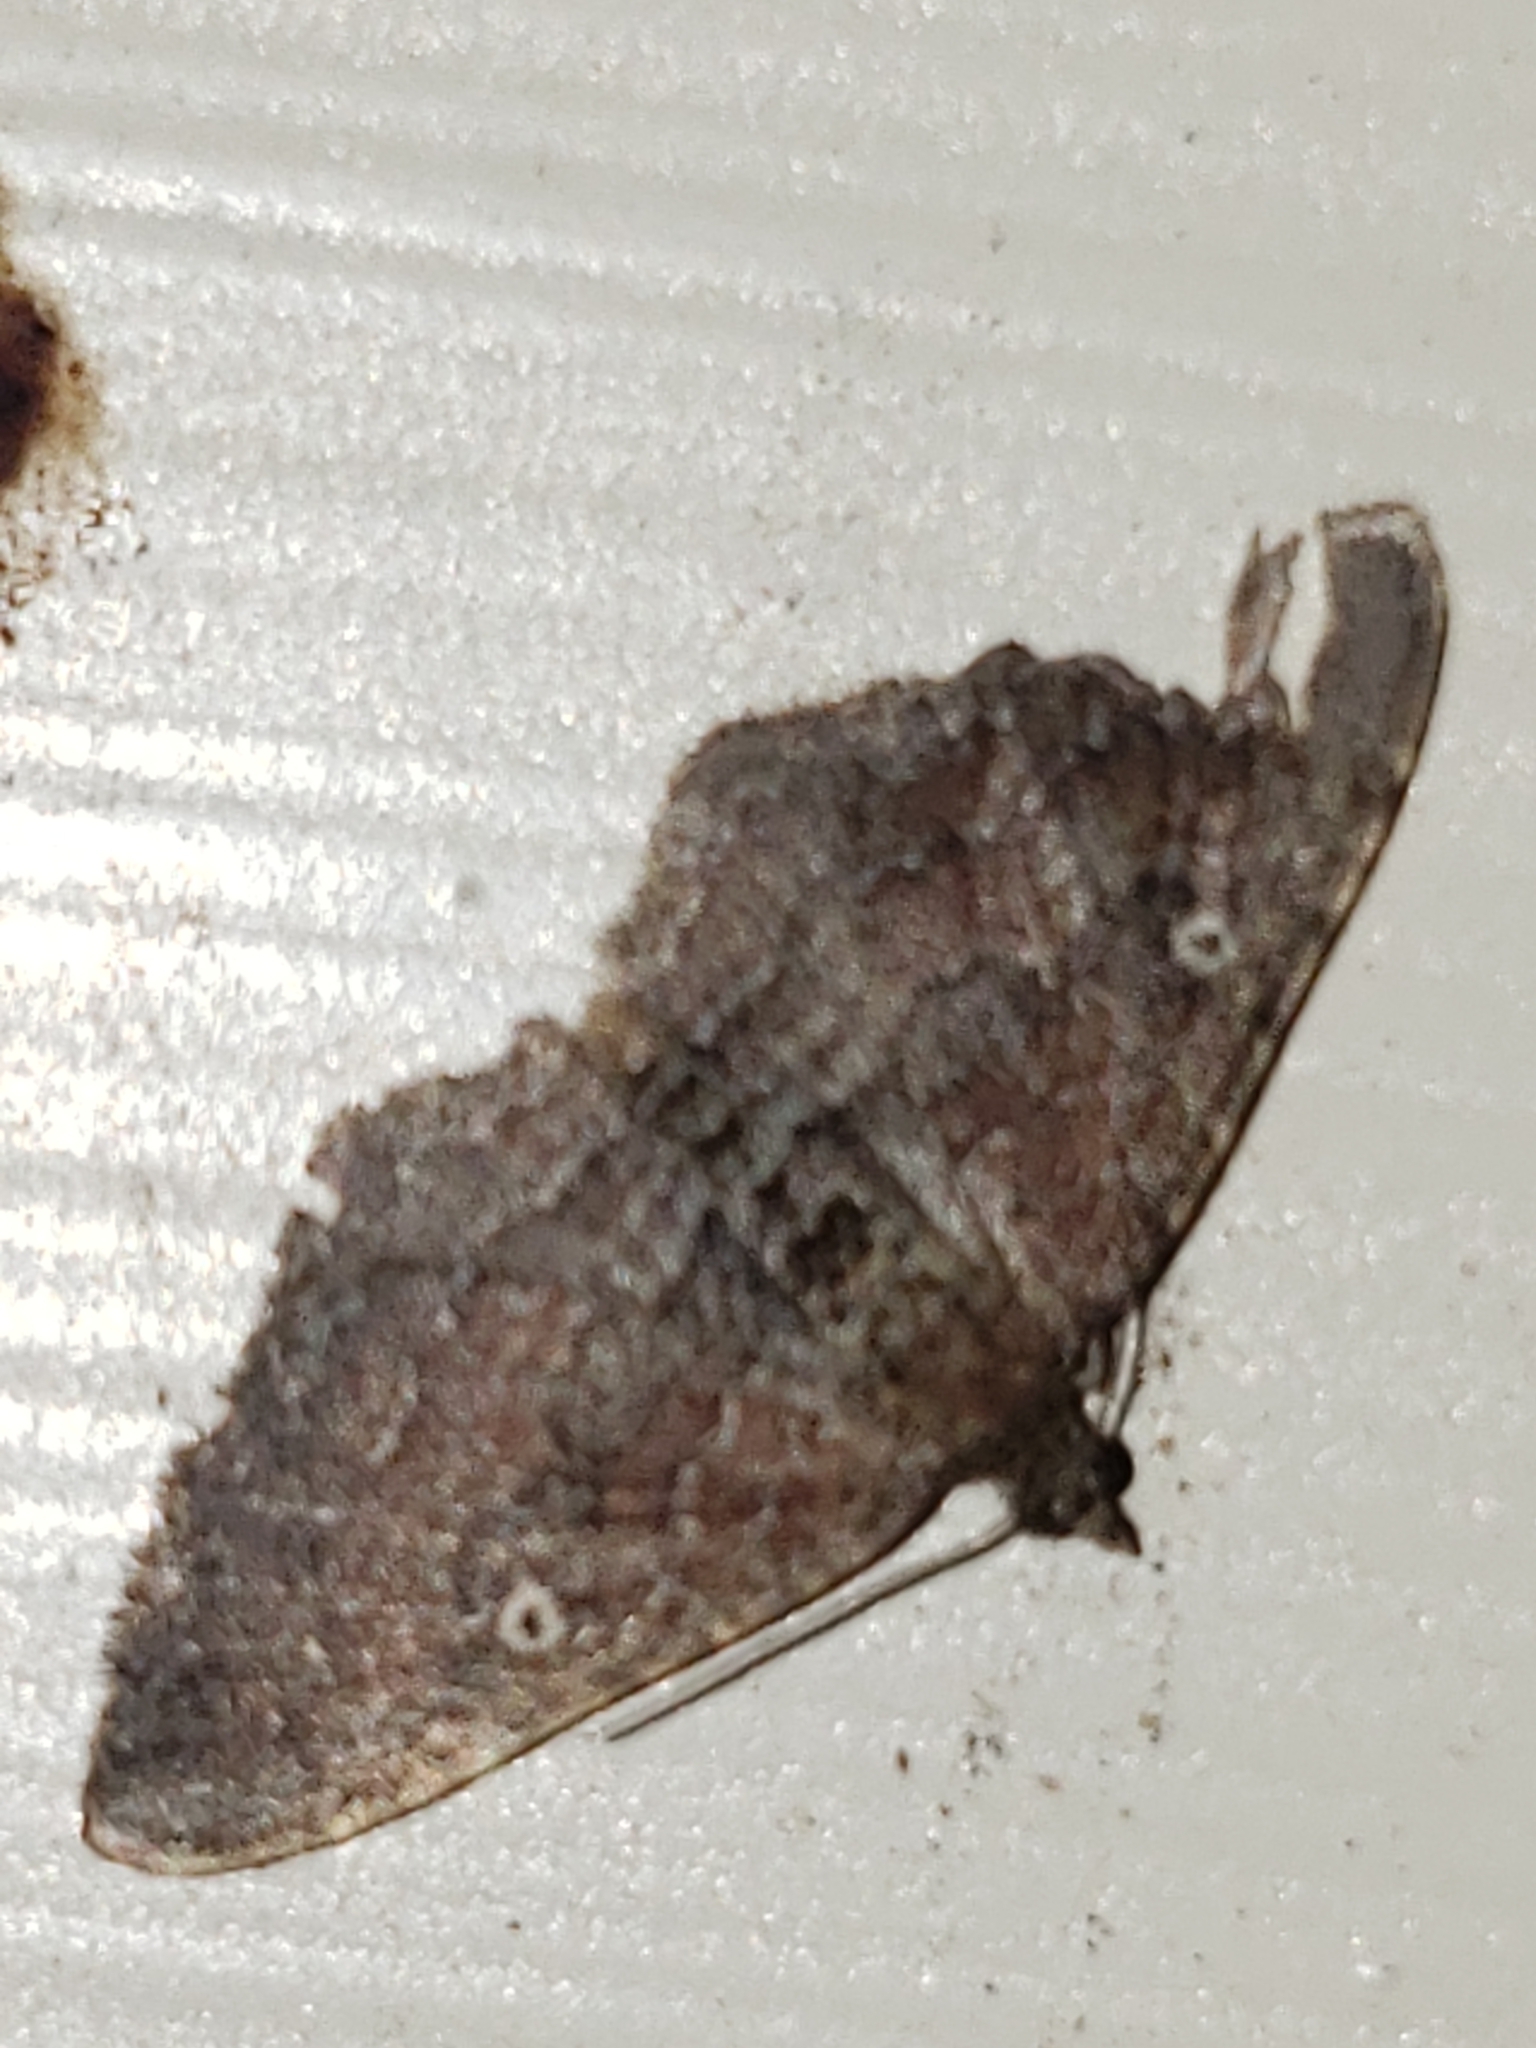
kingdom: Animalia
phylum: Arthropoda
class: Insecta
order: Lepidoptera
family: Geometridae
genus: Orthonama
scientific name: Orthonama obstipata
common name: The gem
